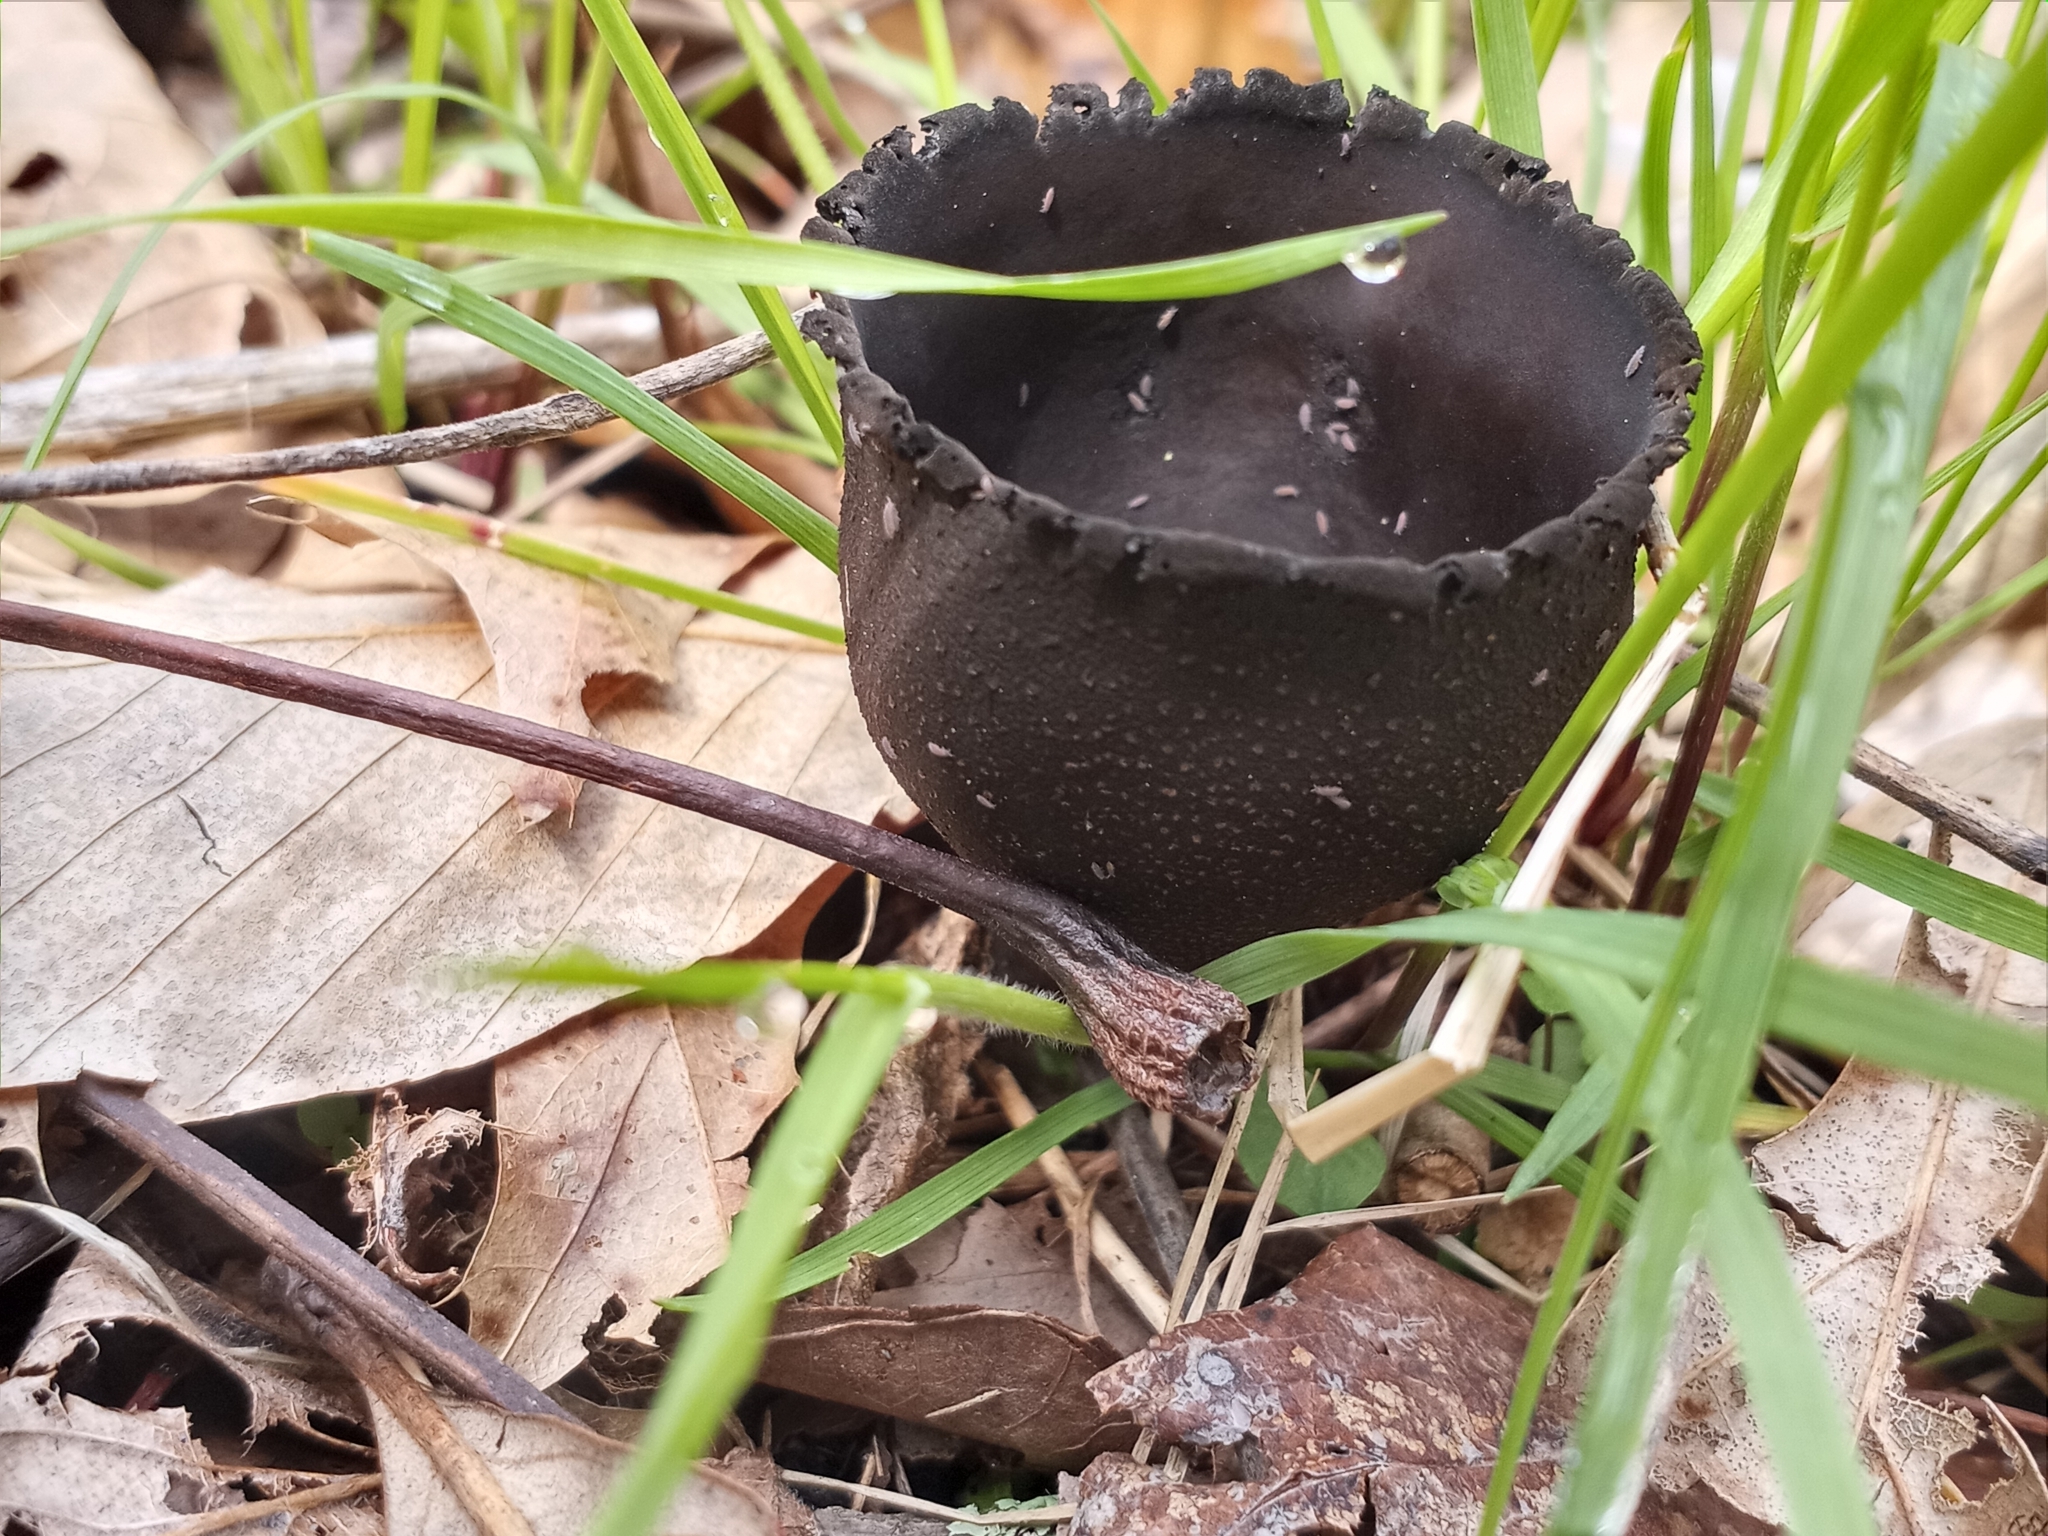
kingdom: Fungi
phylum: Ascomycota
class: Pezizomycetes
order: Pezizales
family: Sarcosomataceae
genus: Urnula
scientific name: Urnula craterium
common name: Devil's urn
